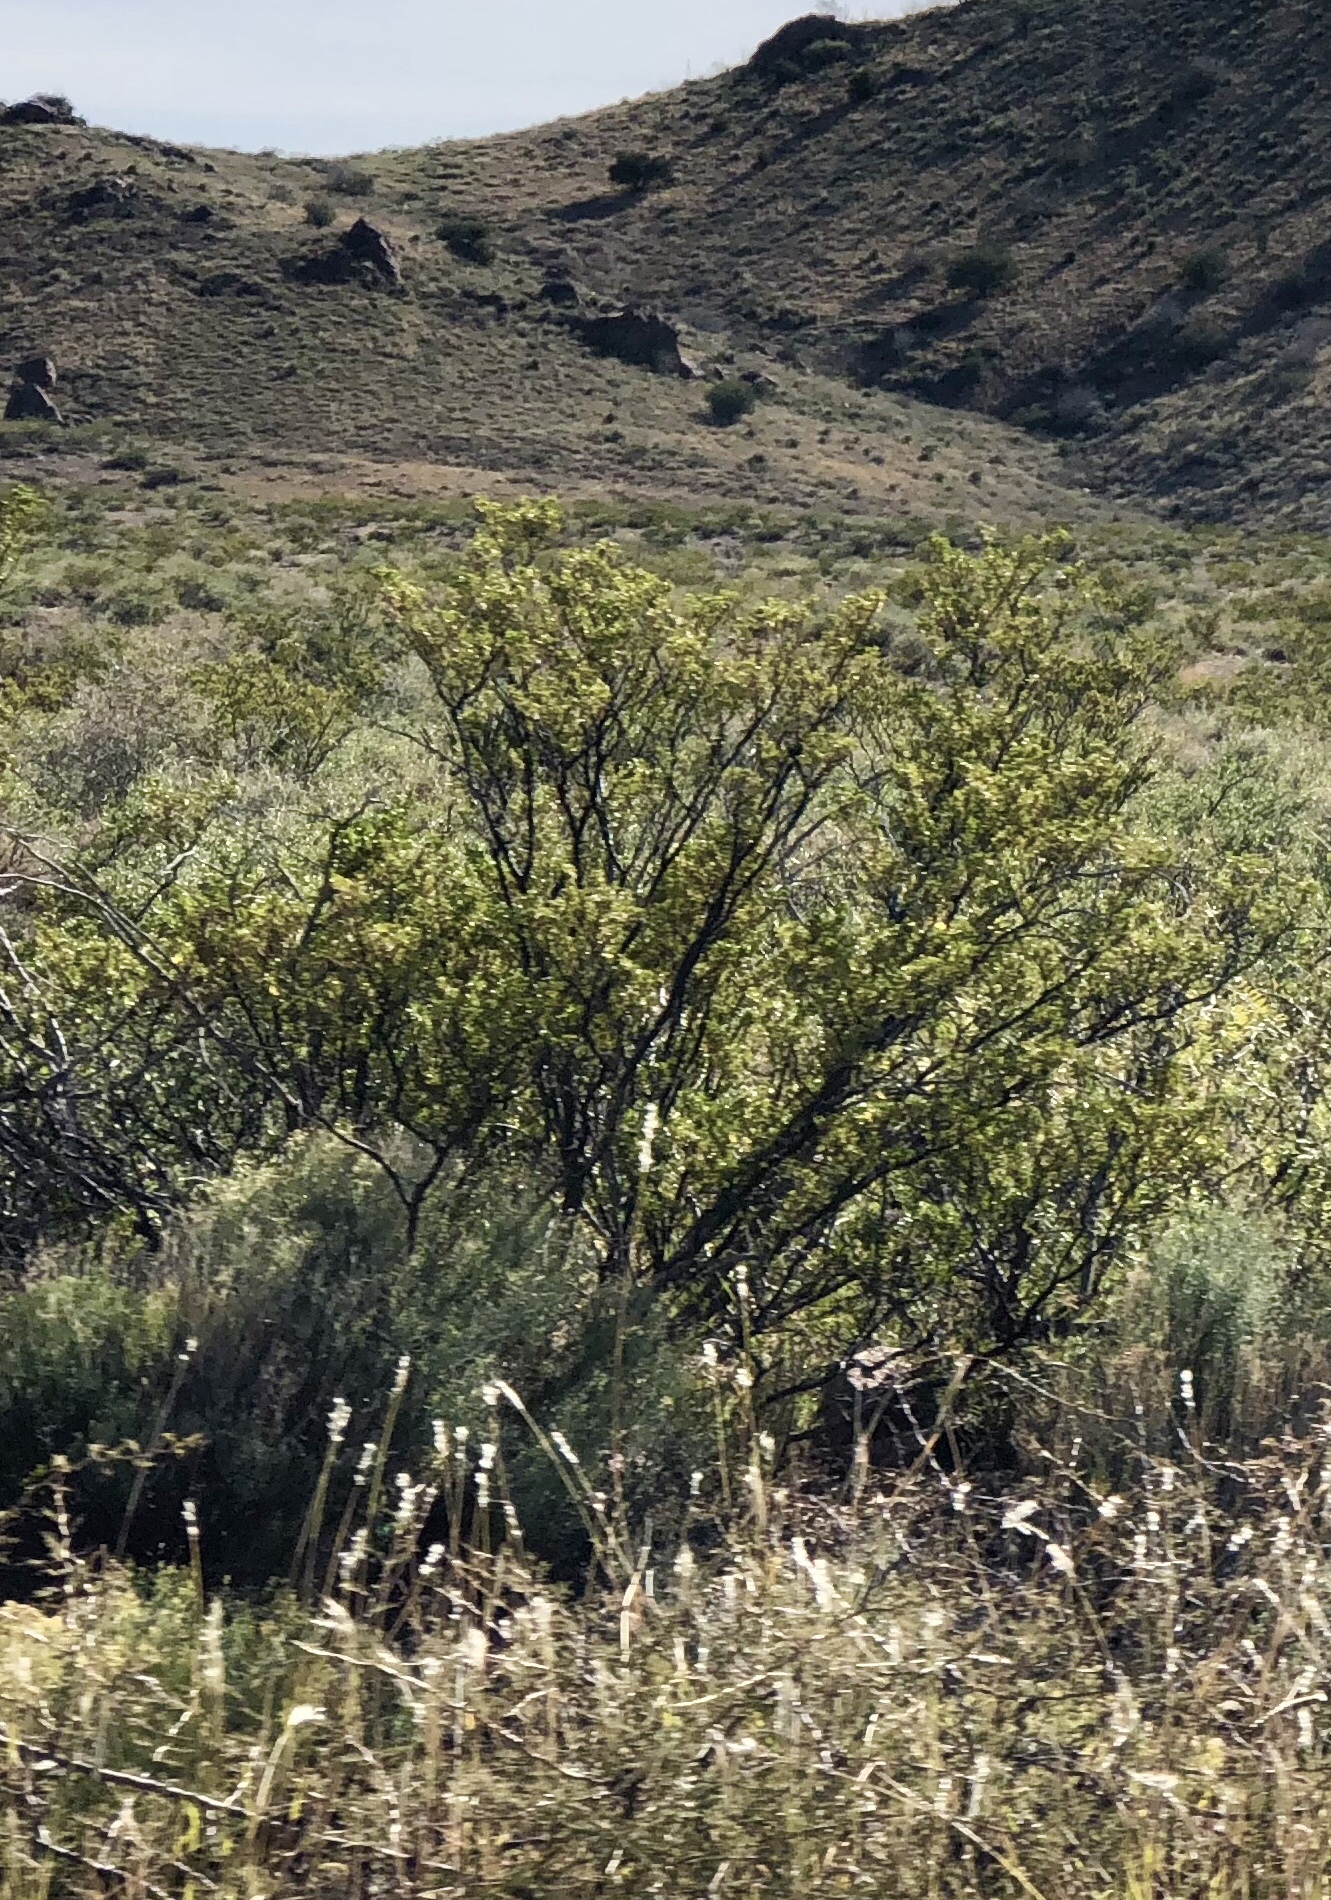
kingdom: Plantae
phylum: Tracheophyta
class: Magnoliopsida
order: Zygophyllales
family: Zygophyllaceae
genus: Larrea
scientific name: Larrea tridentata
